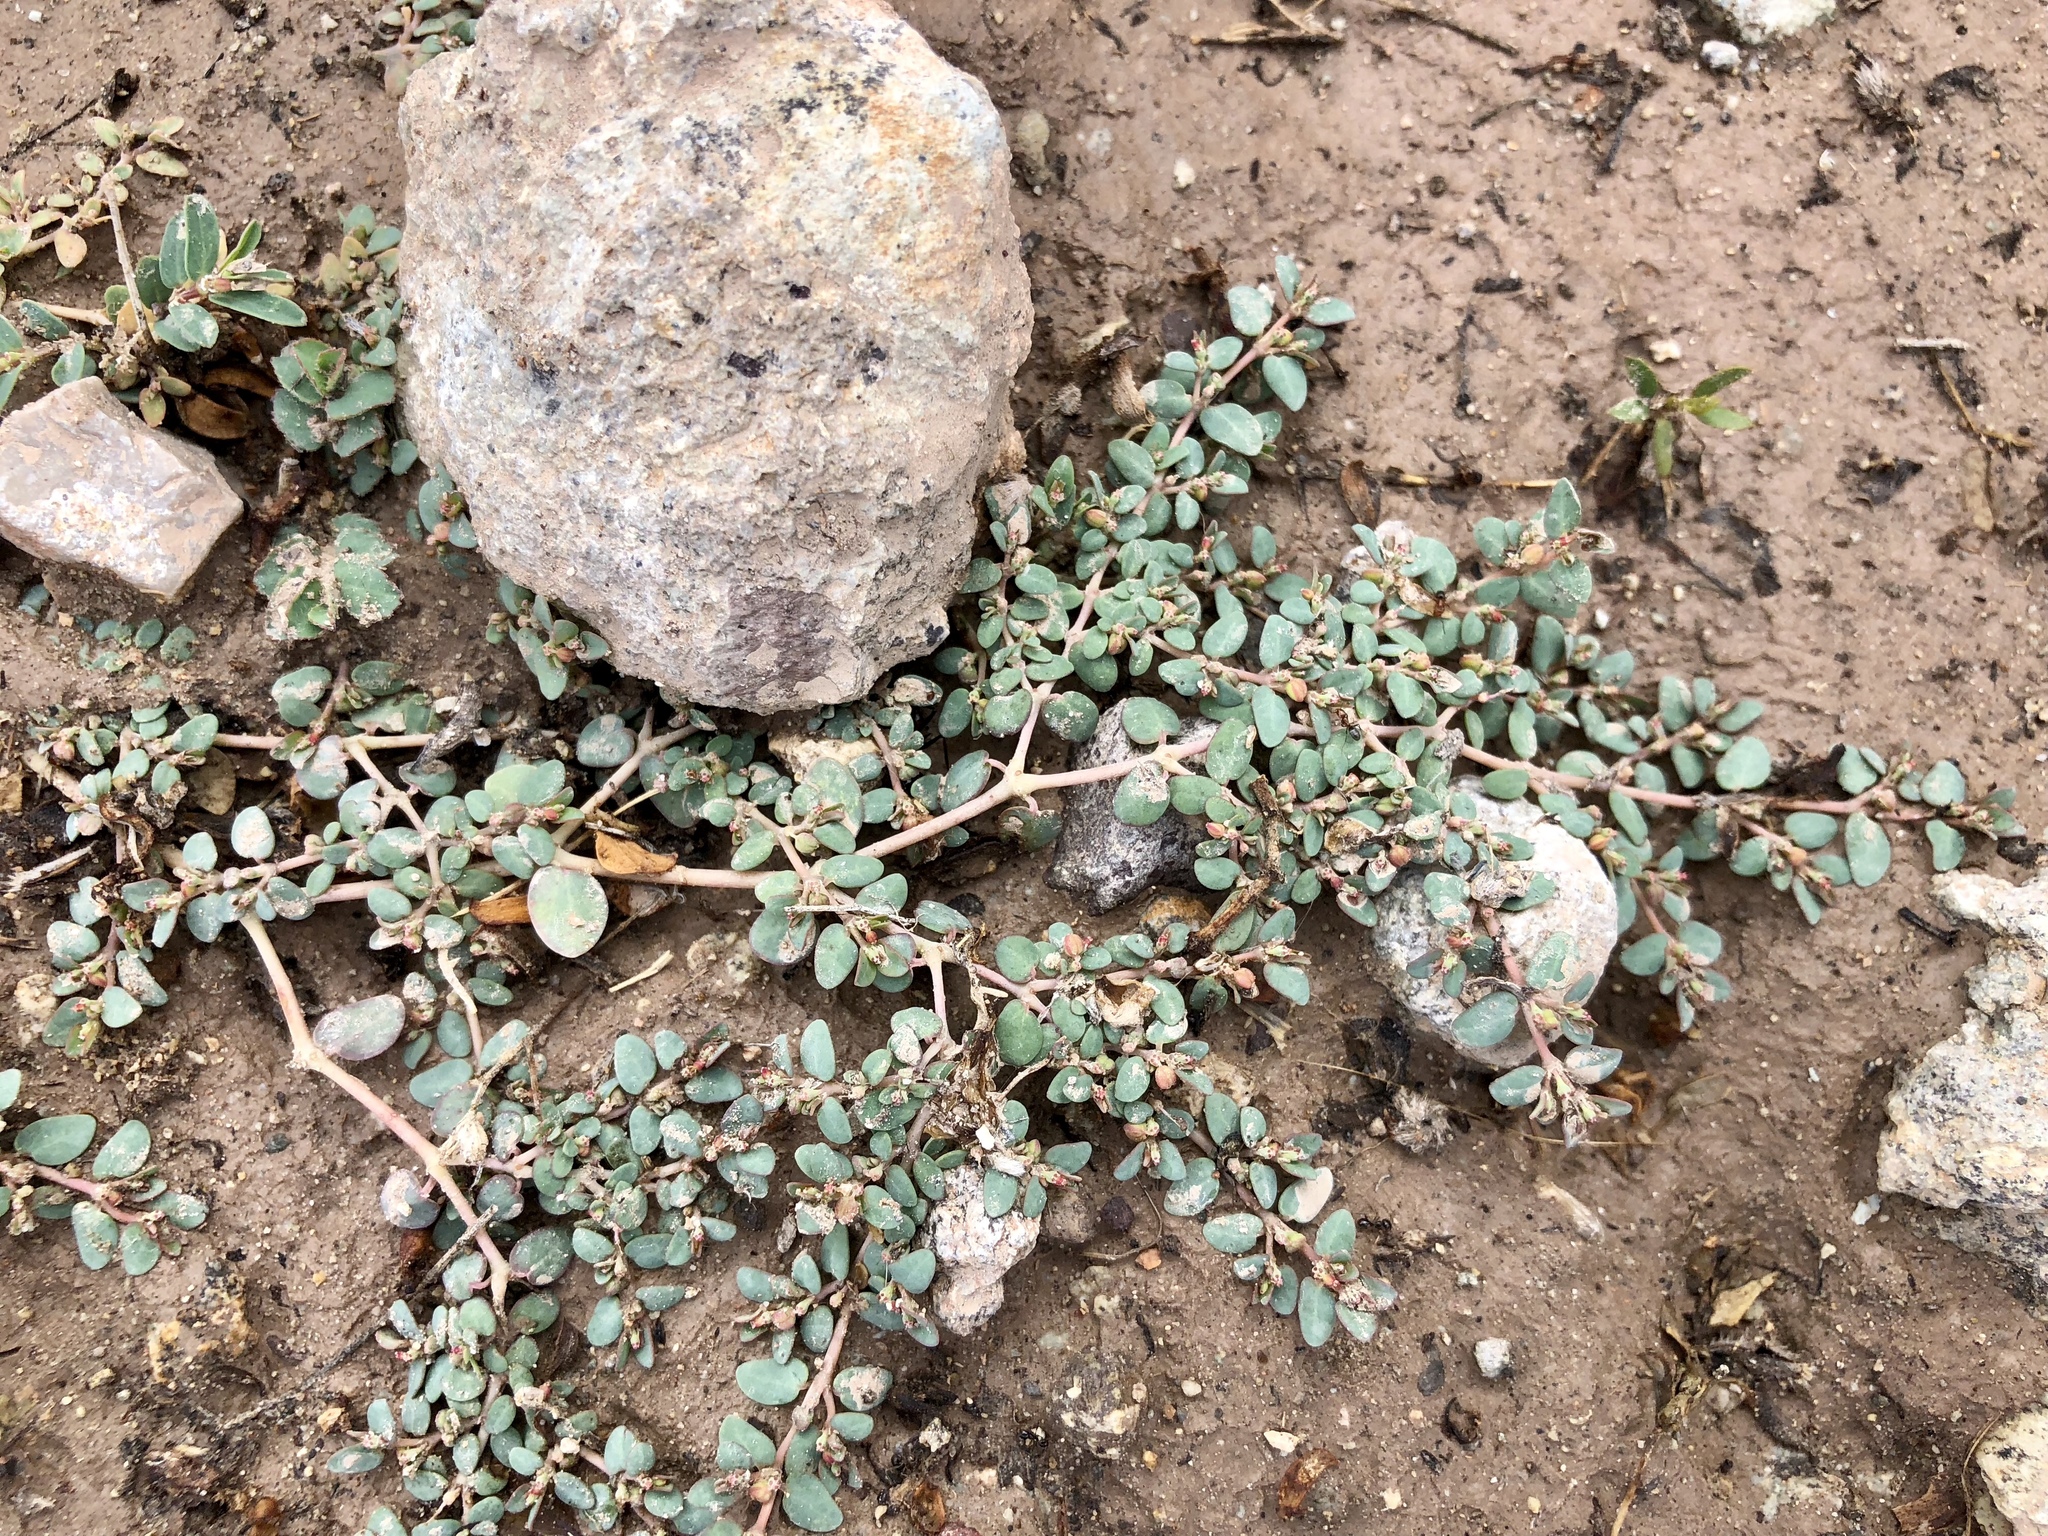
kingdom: Plantae
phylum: Tracheophyta
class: Magnoliopsida
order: Malpighiales
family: Euphorbiaceae
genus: Euphorbia
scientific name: Euphorbia micromera
